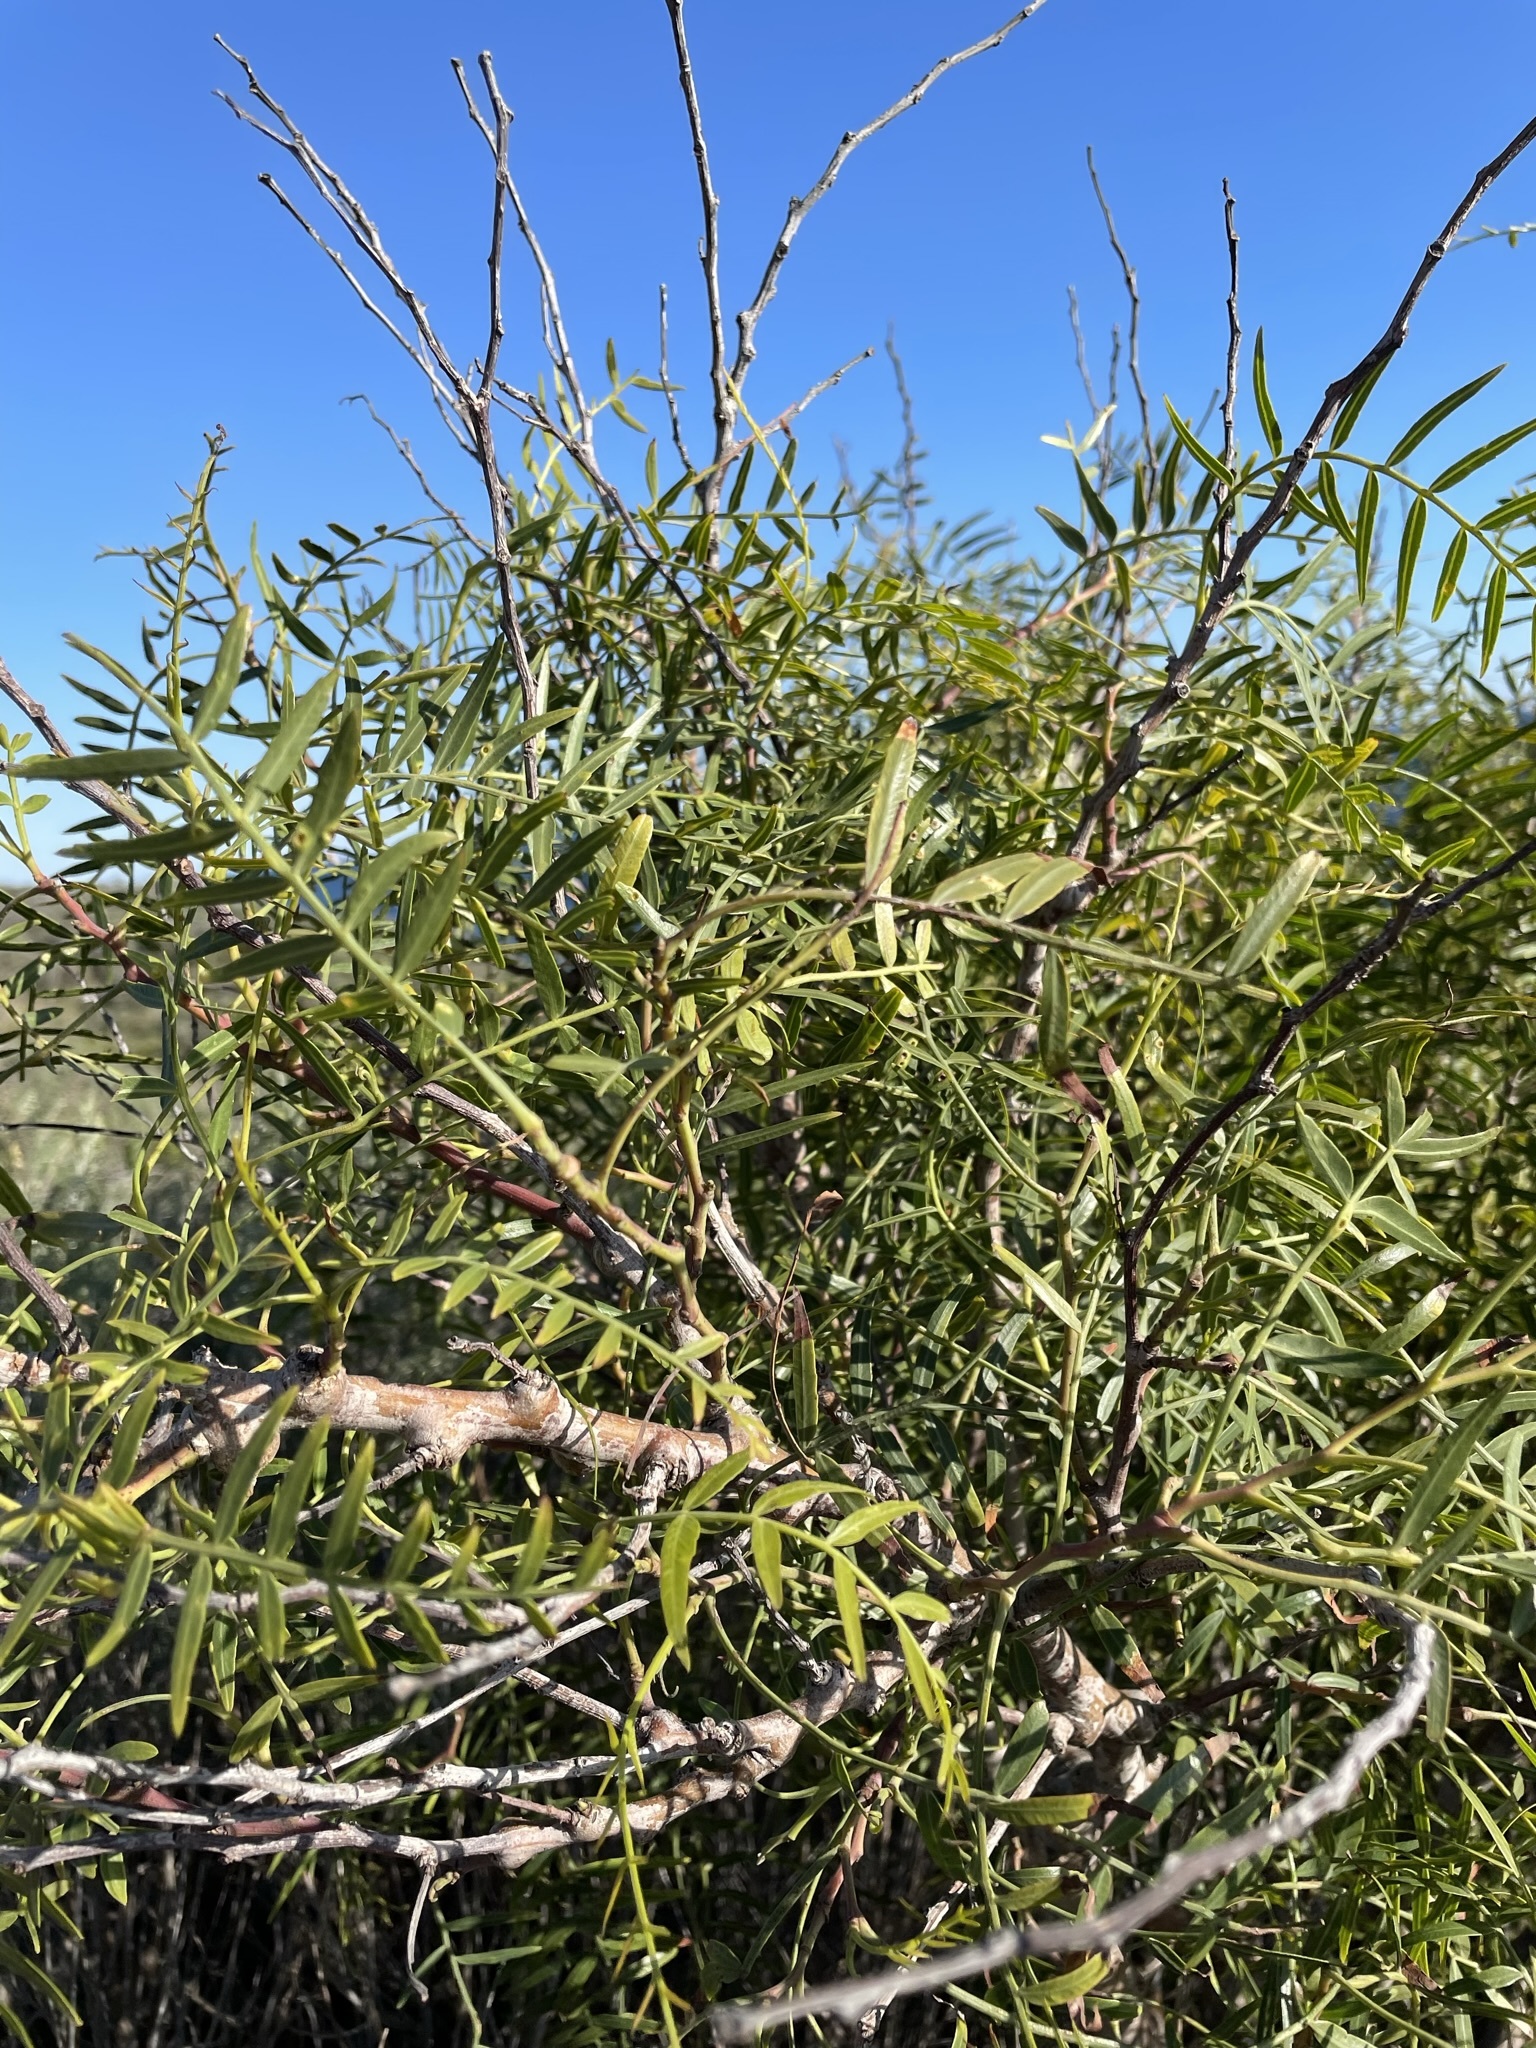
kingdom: Plantae
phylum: Tracheophyta
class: Magnoliopsida
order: Sapindales
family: Anacardiaceae
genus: Schinus
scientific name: Schinus molle
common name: Peruvian peppertree
